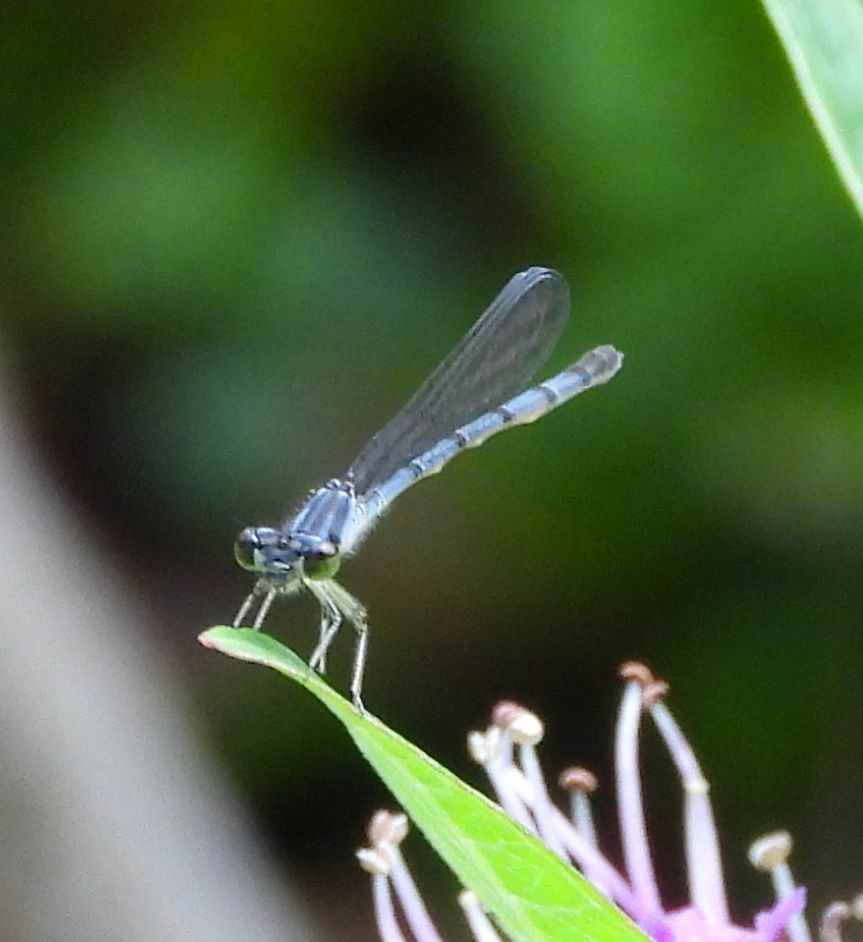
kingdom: Animalia
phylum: Arthropoda
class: Insecta
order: Odonata
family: Coenagrionidae
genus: Ischnura
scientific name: Ischnura verticalis
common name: Eastern forktail
